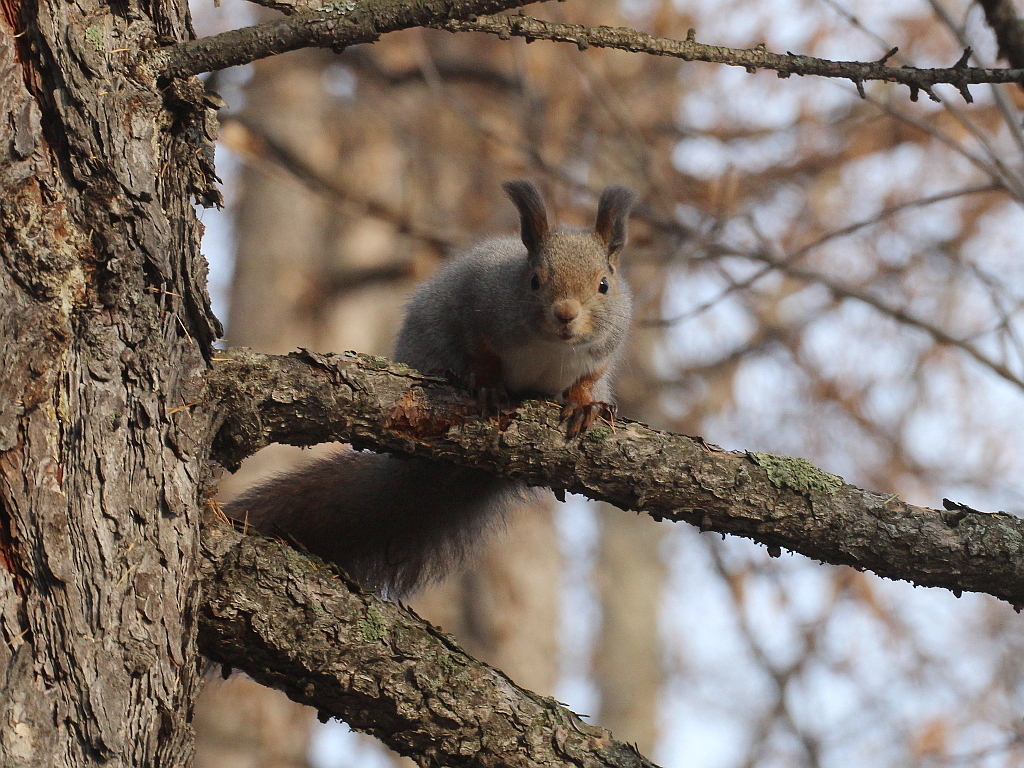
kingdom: Animalia
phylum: Chordata
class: Mammalia
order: Rodentia
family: Sciuridae
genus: Sciurus
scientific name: Sciurus vulgaris
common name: Eurasian red squirrel
